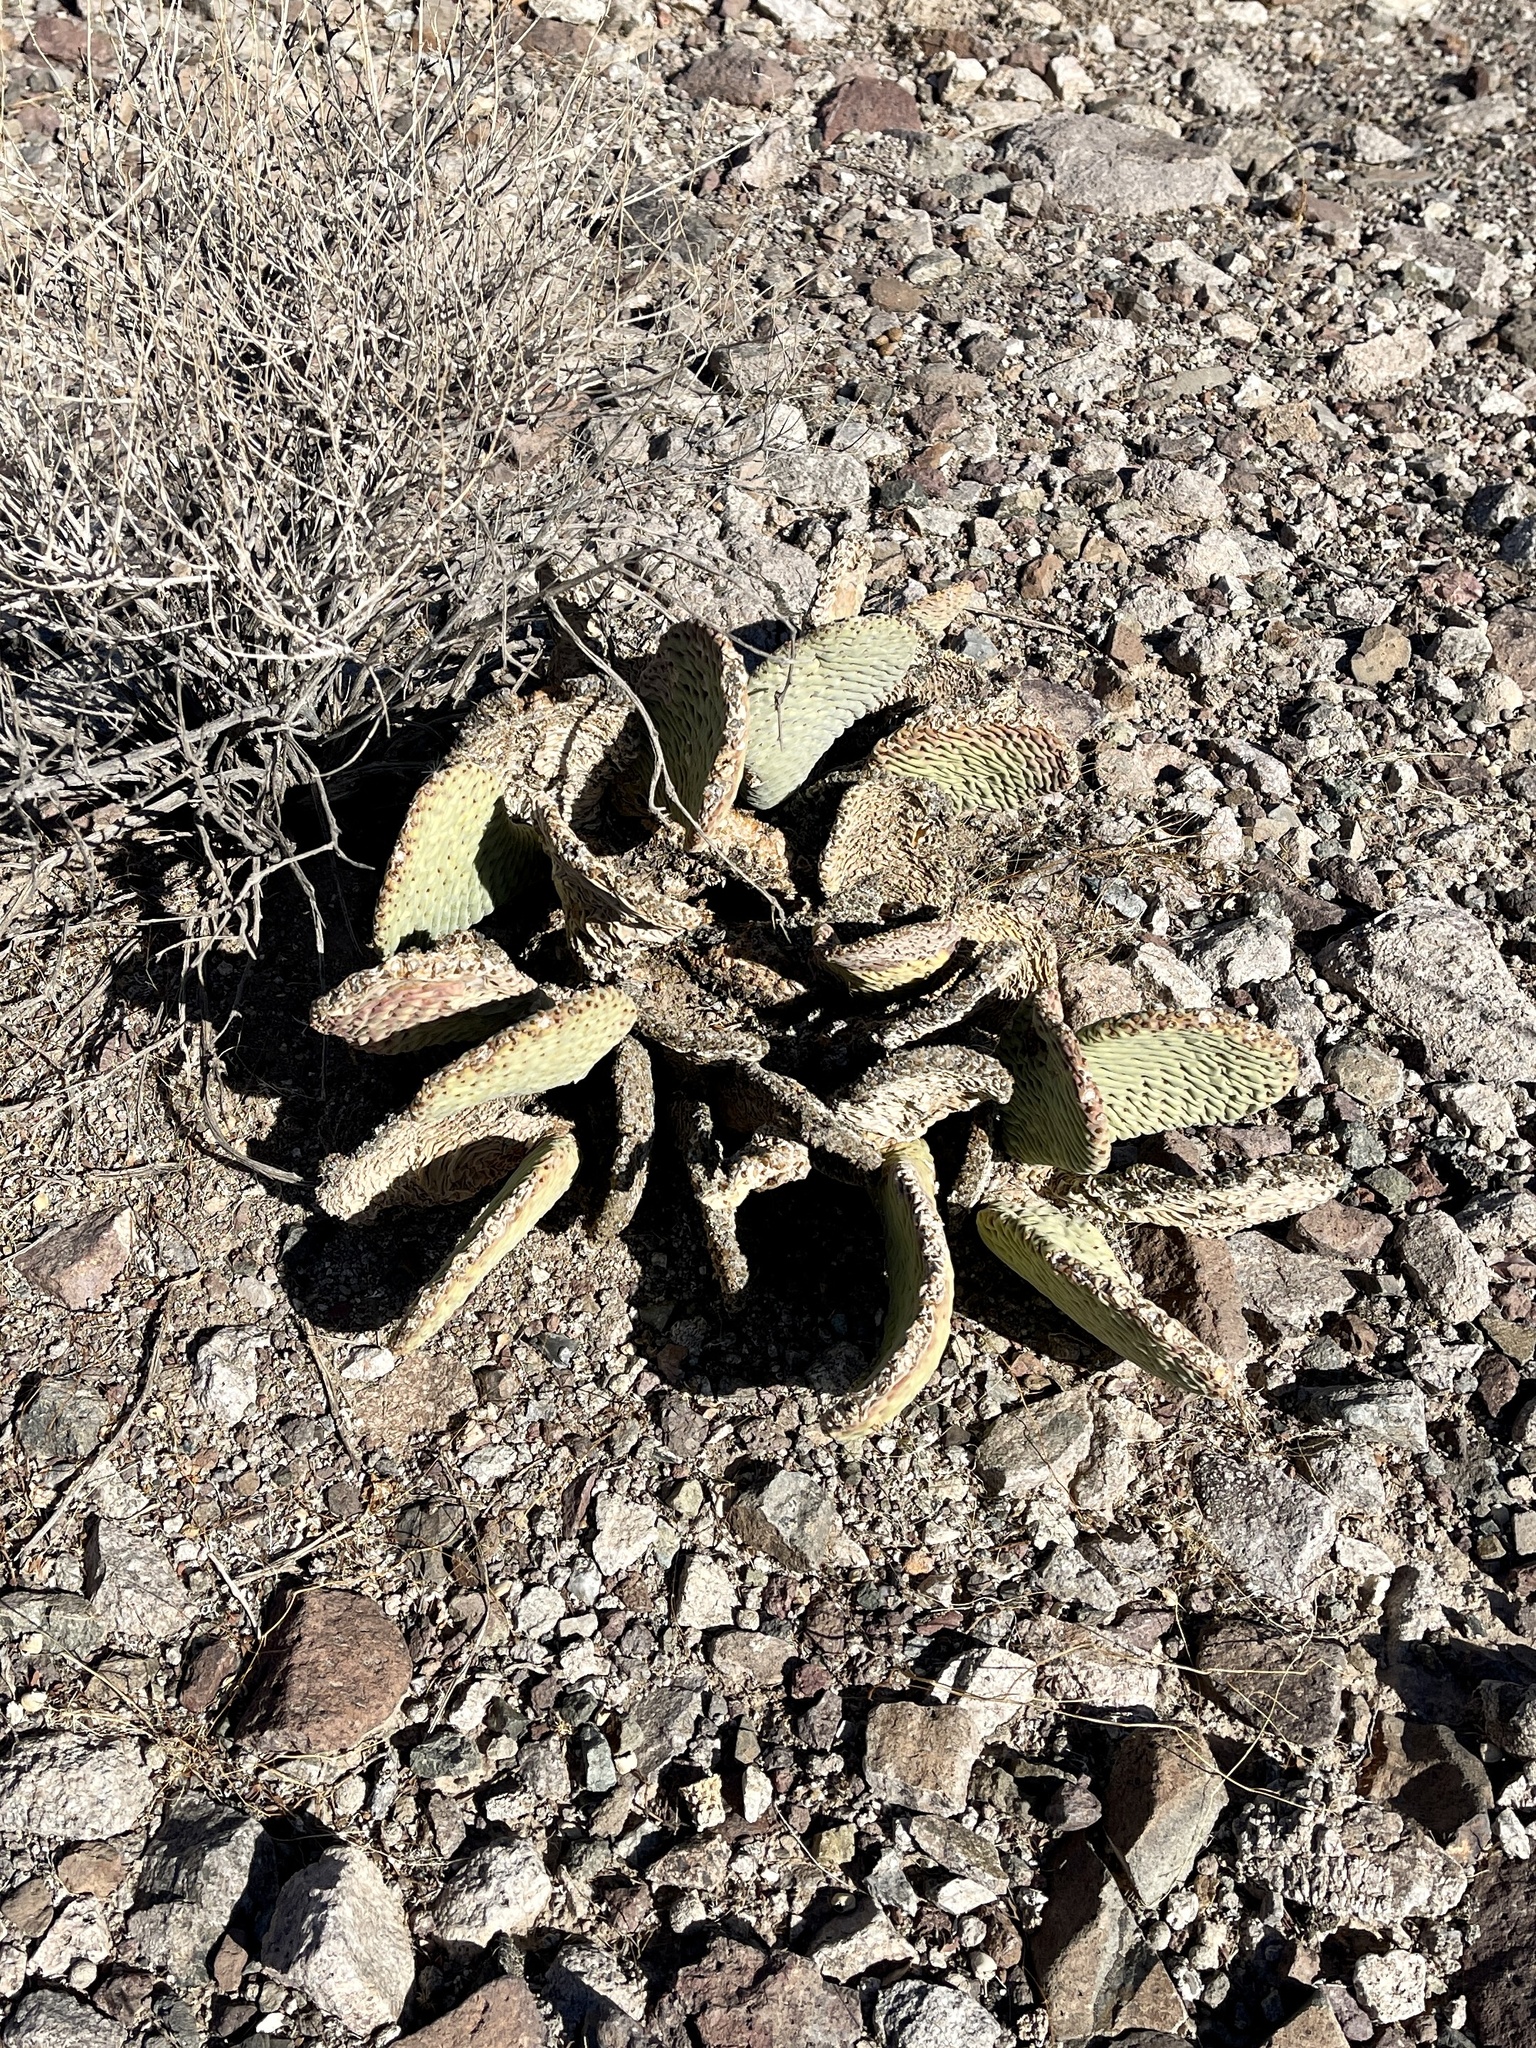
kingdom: Plantae
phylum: Tracheophyta
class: Magnoliopsida
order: Caryophyllales
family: Cactaceae
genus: Opuntia
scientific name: Opuntia basilaris
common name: Beavertail prickly-pear
